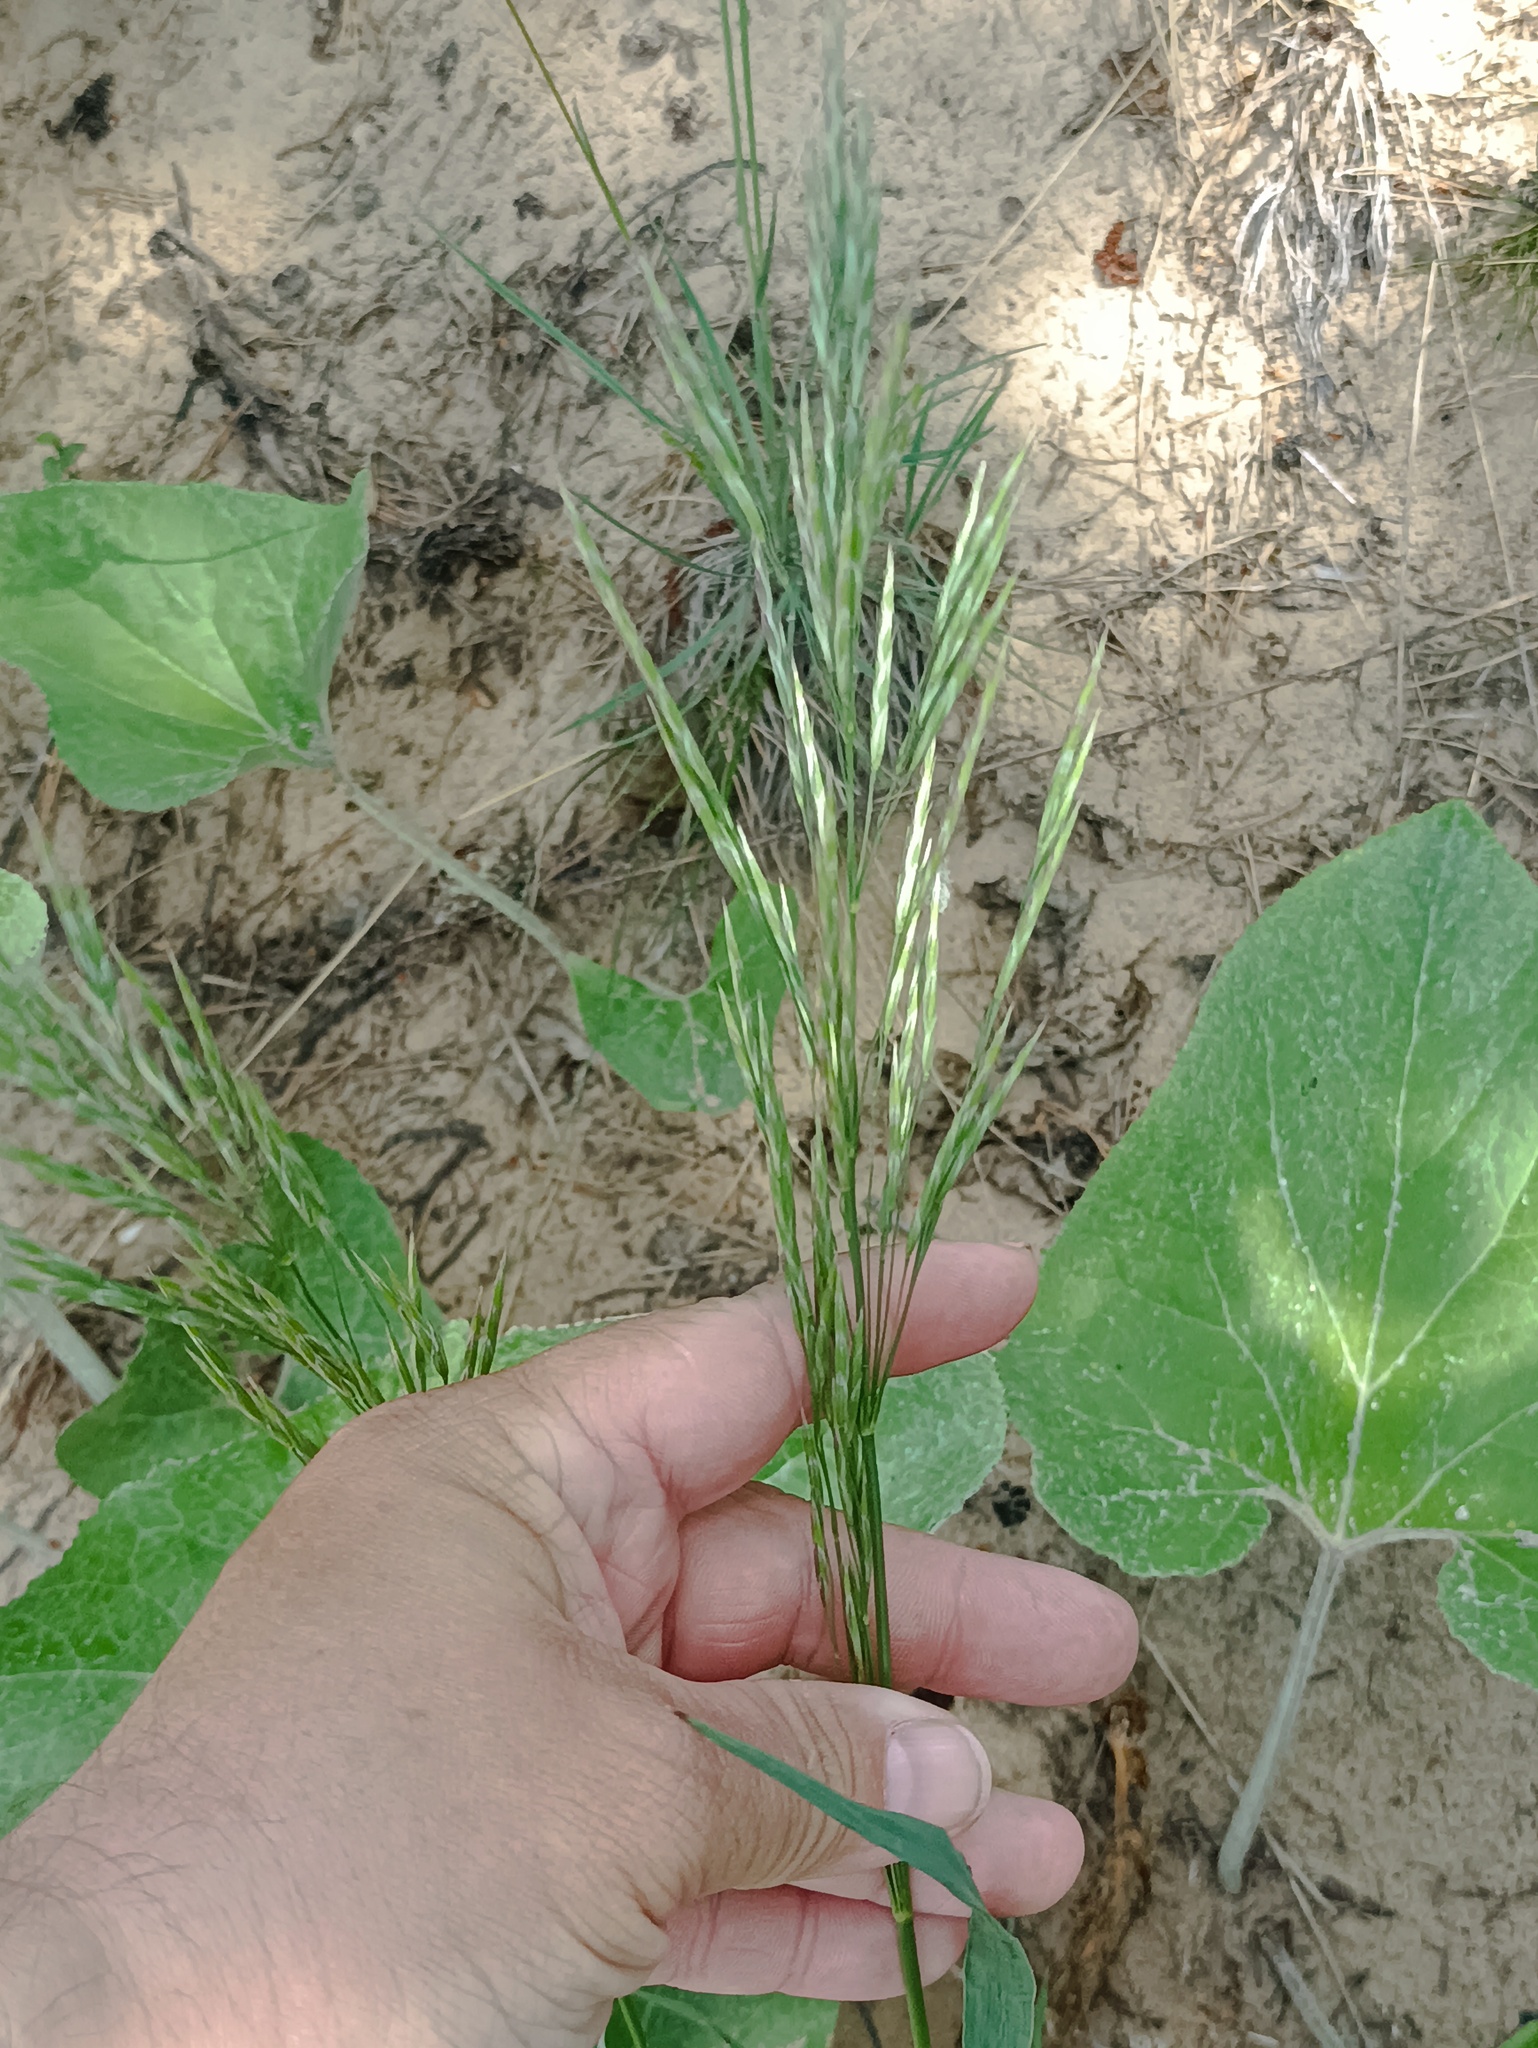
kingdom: Plantae
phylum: Tracheophyta
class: Liliopsida
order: Poales
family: Poaceae
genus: Bromus
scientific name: Bromus inermis
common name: Smooth brome
